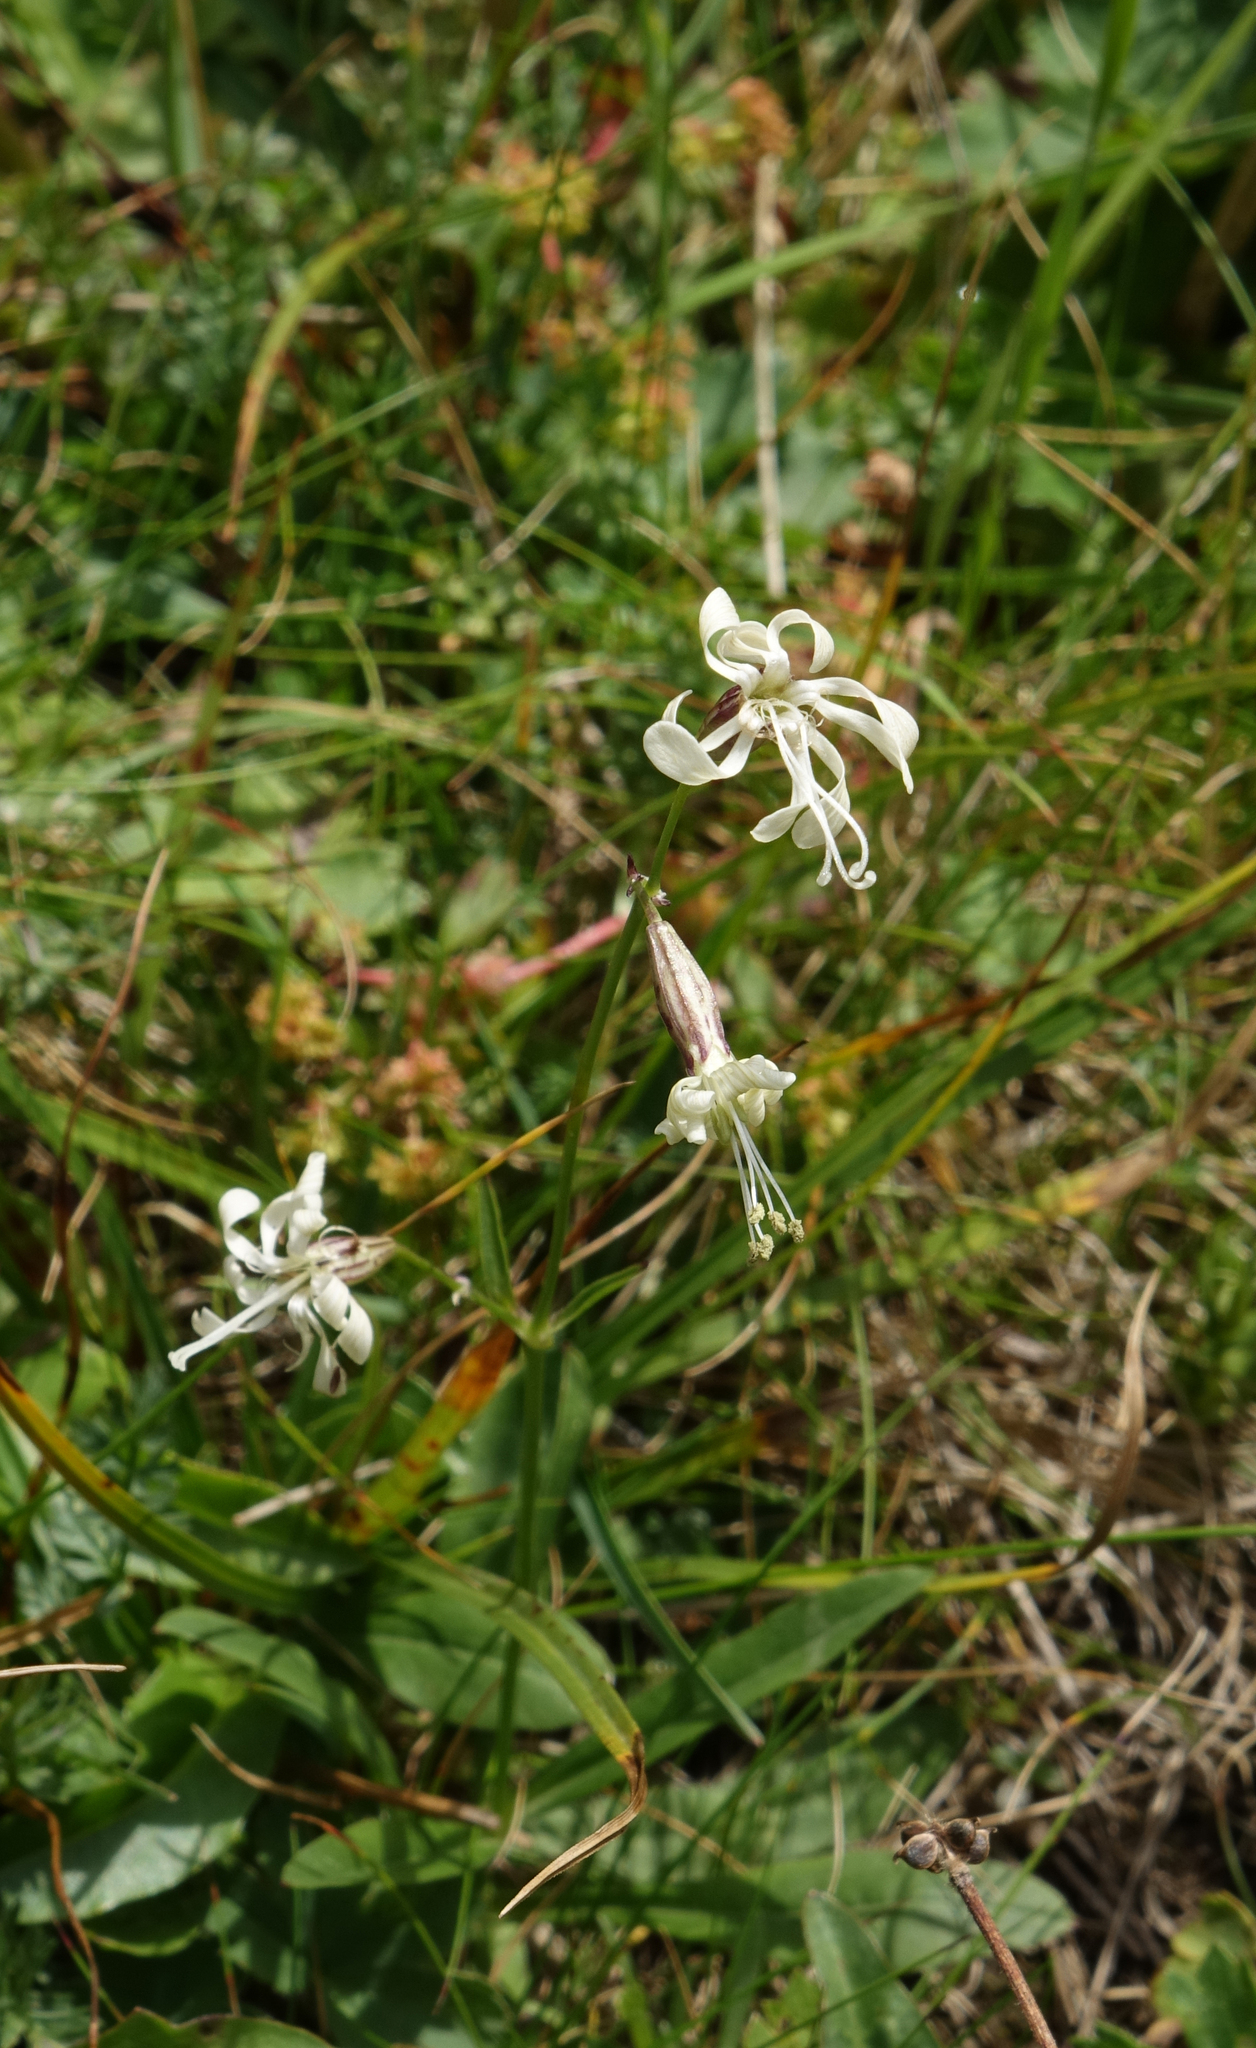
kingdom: Plantae
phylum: Tracheophyta
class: Magnoliopsida
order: Caryophyllales
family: Caryophyllaceae
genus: Silene
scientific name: Silene saxatilis
